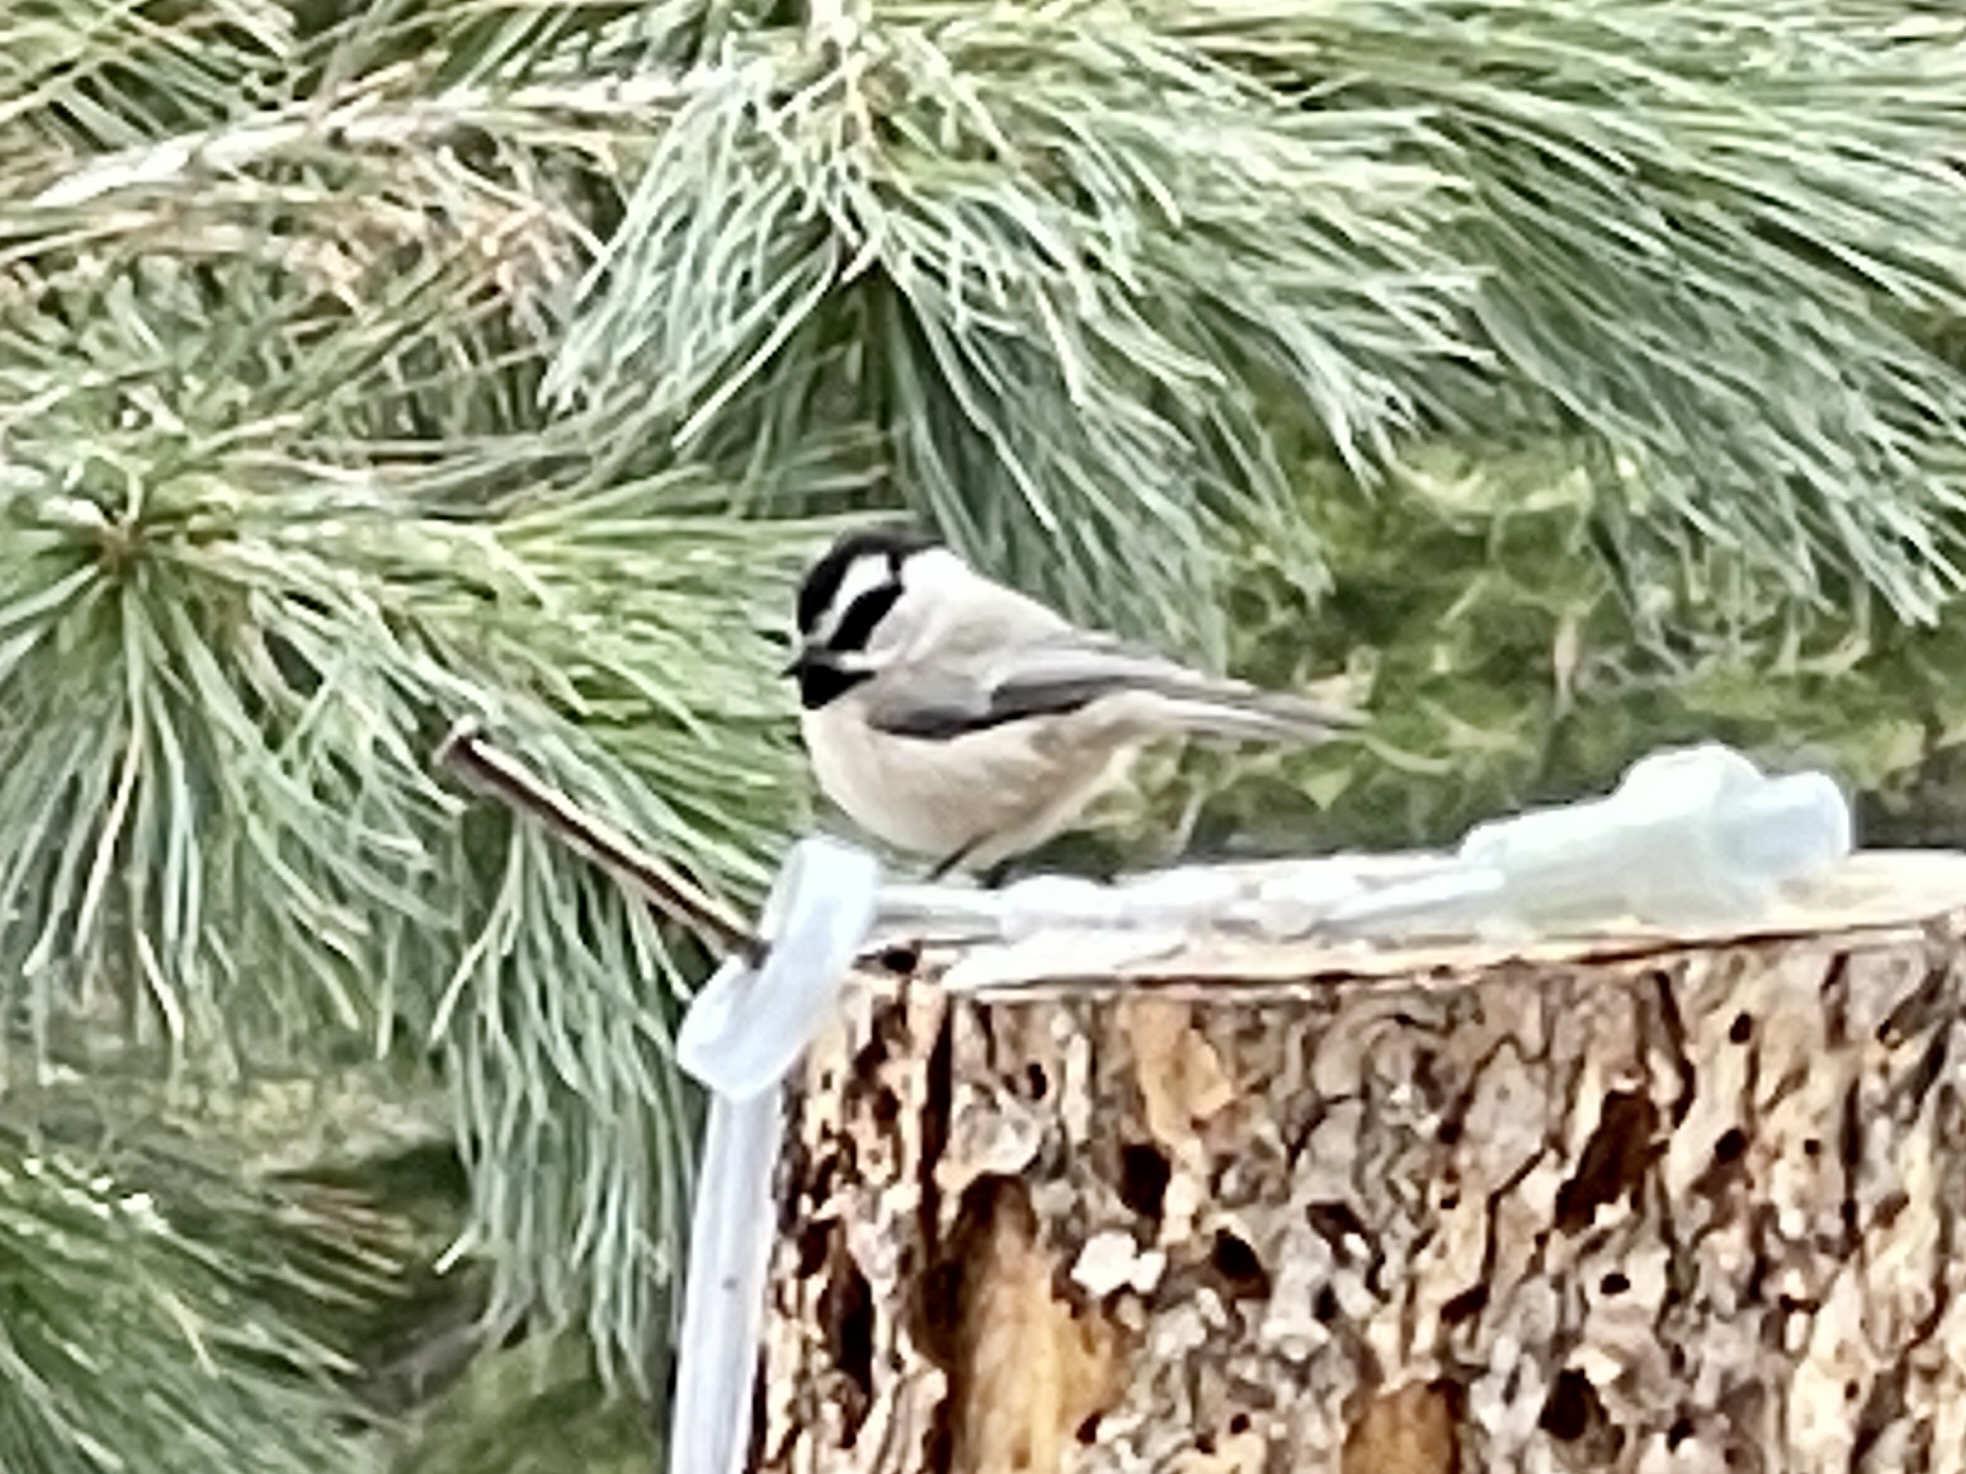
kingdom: Animalia
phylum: Chordata
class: Aves
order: Passeriformes
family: Paridae
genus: Poecile
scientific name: Poecile gambeli
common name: Mountain chickadee
